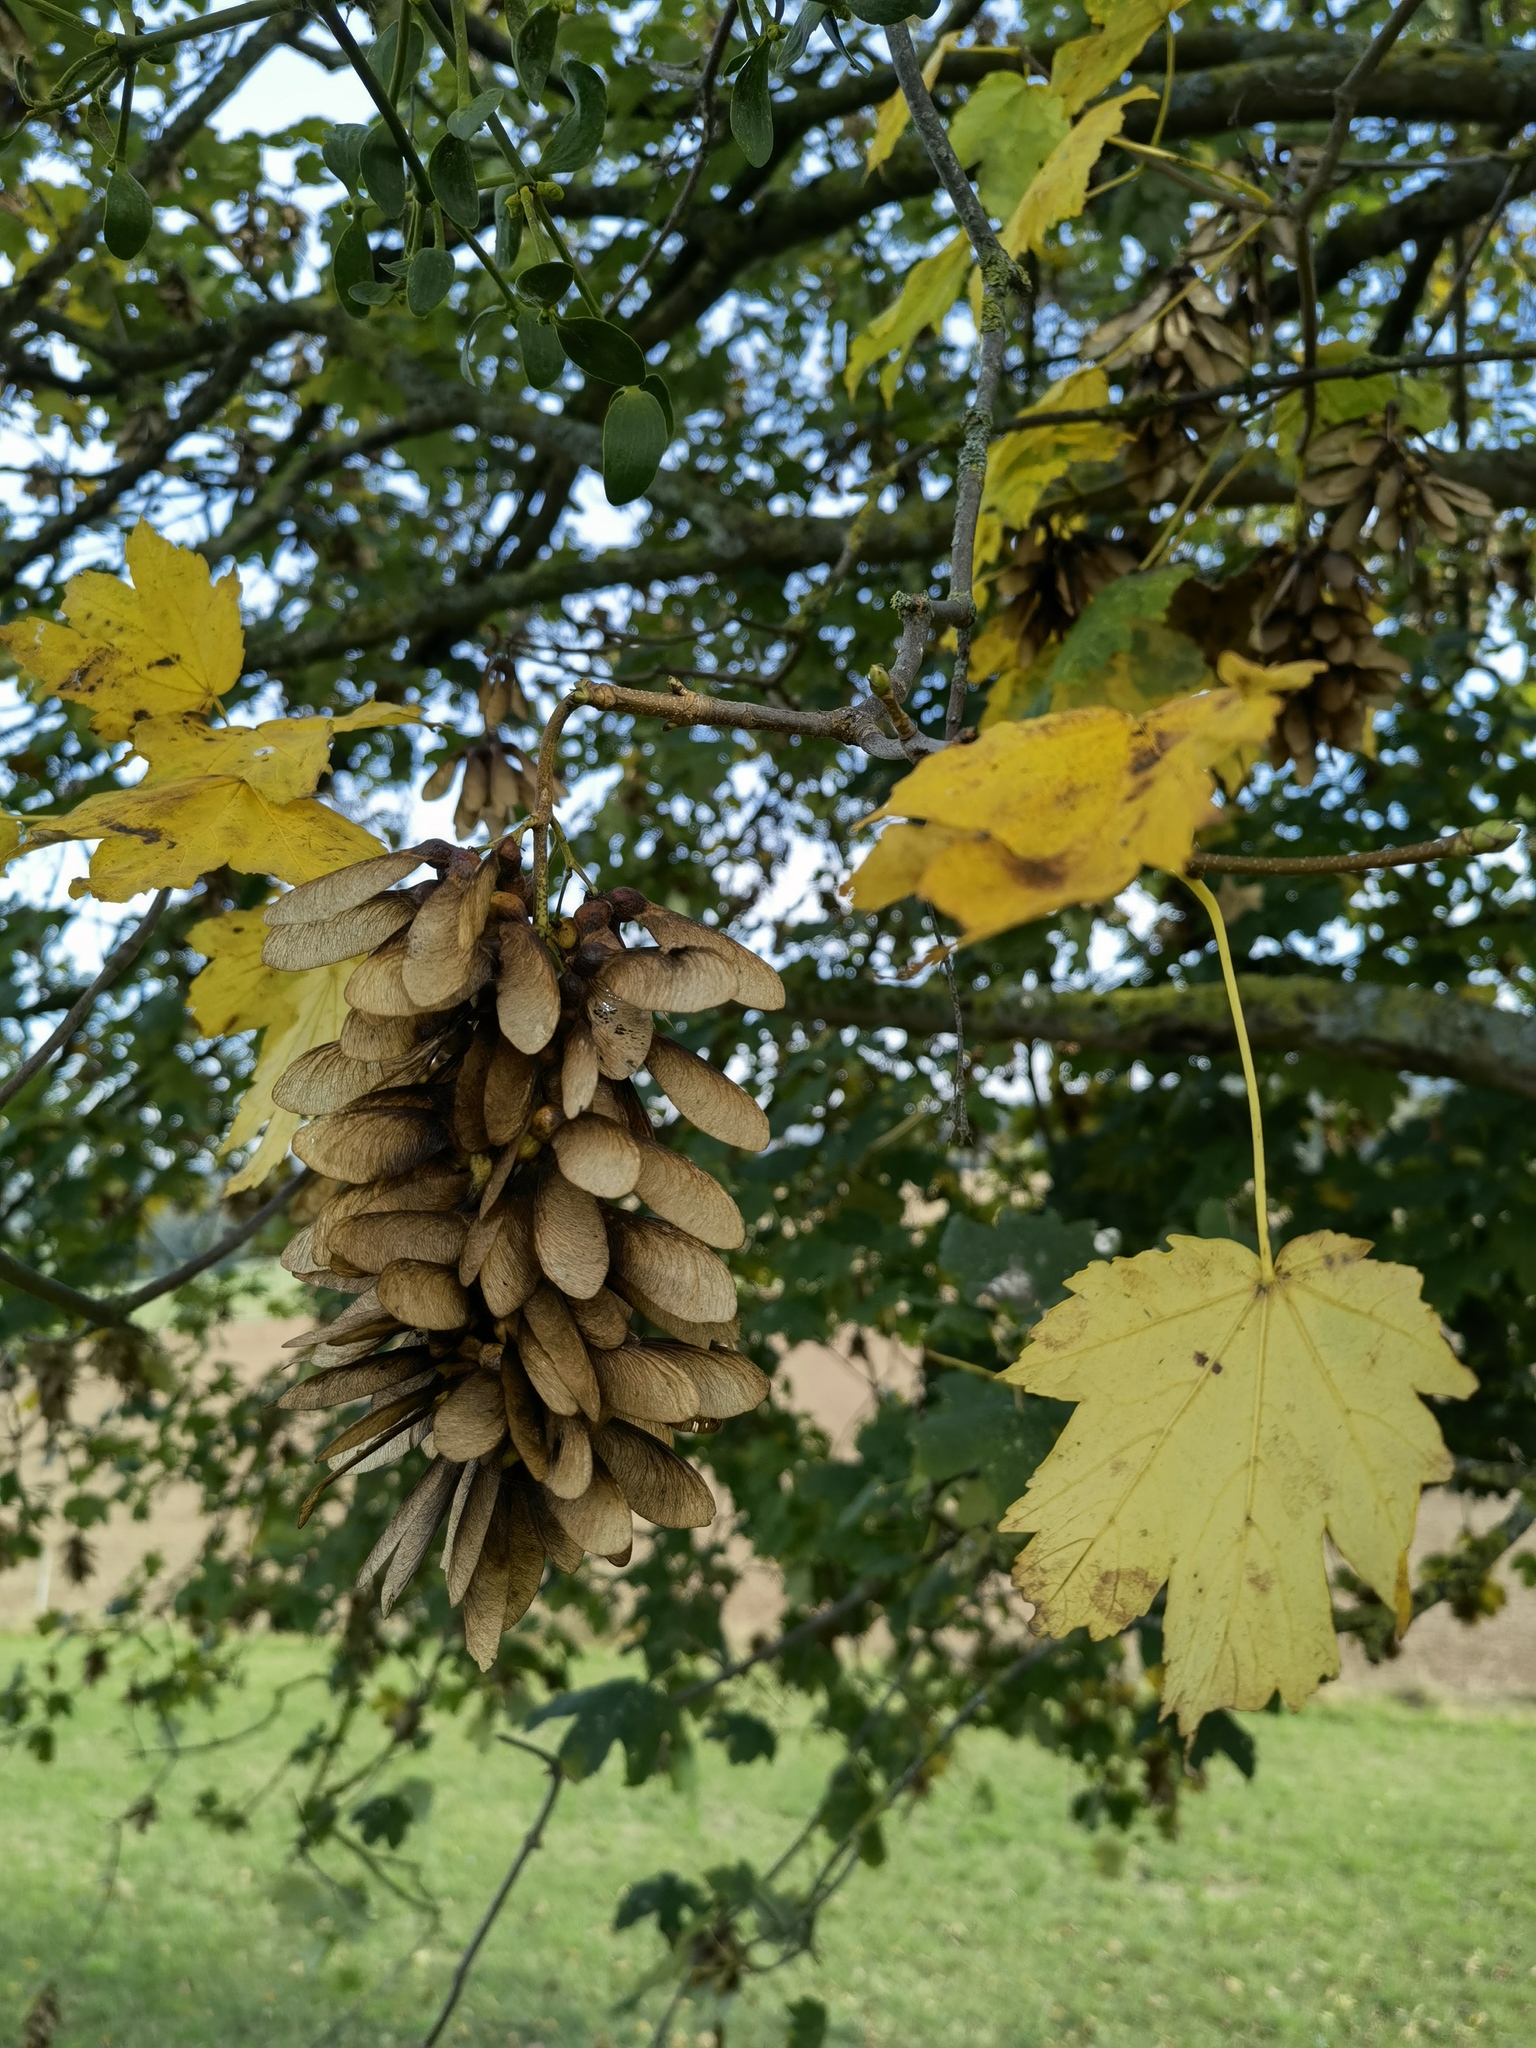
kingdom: Plantae
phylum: Tracheophyta
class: Magnoliopsida
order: Sapindales
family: Sapindaceae
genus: Acer
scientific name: Acer pseudoplatanus
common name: Sycamore
